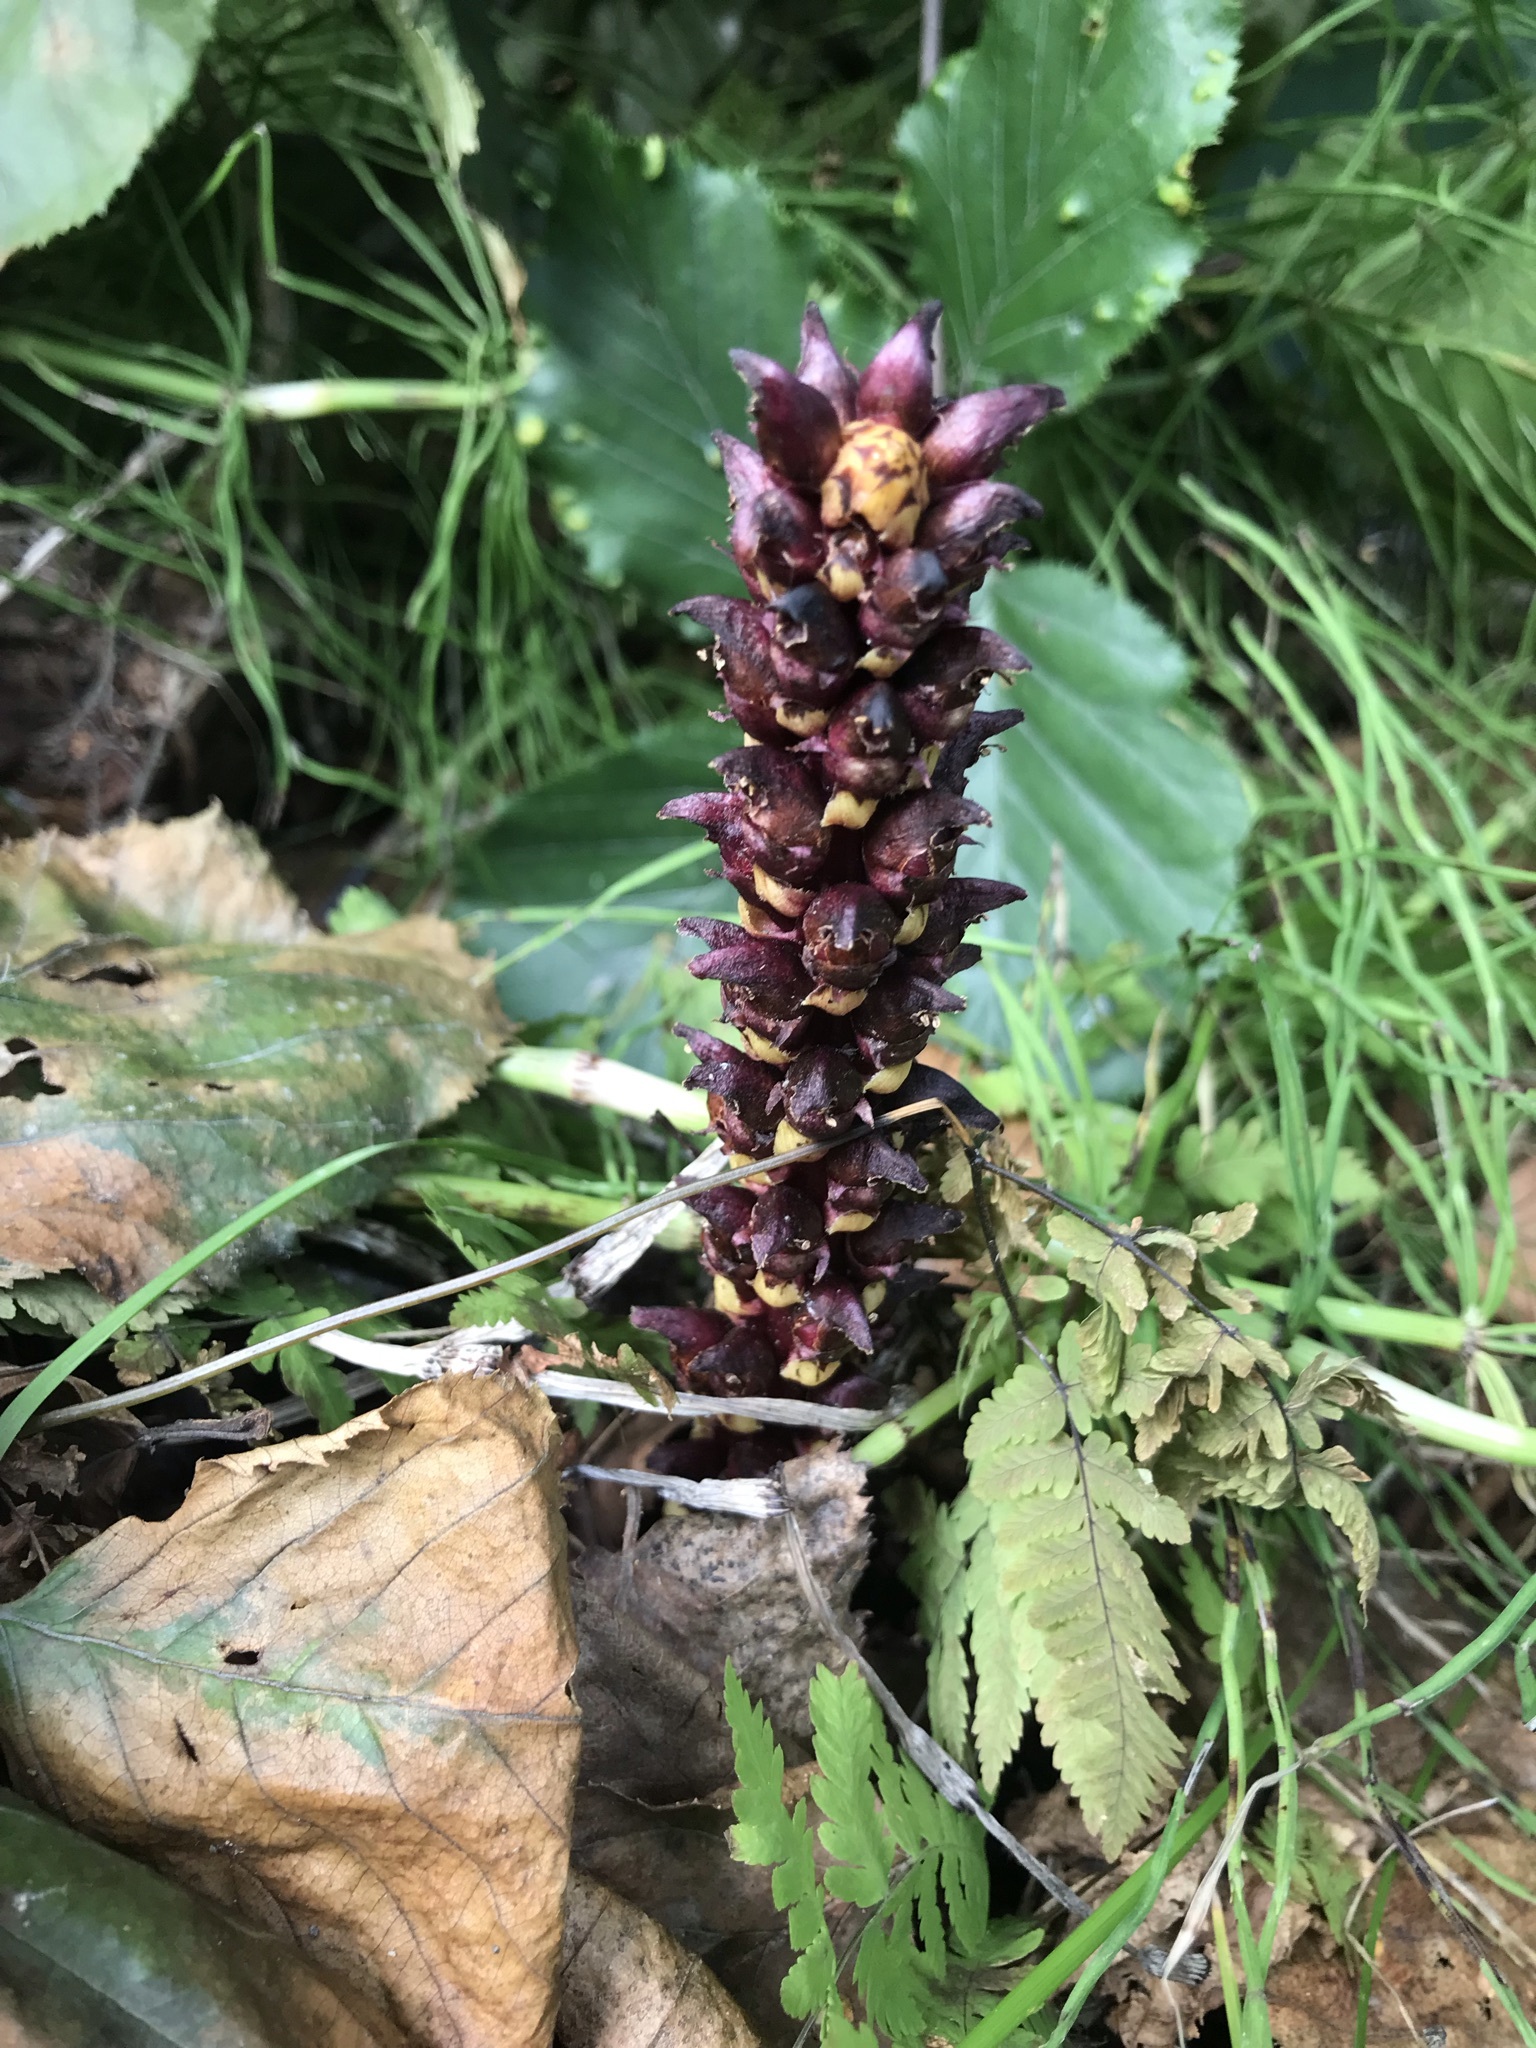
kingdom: Plantae
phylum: Tracheophyta
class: Magnoliopsida
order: Lamiales
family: Orobanchaceae
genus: Boschniakia
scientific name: Boschniakia rossica
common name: Poque
